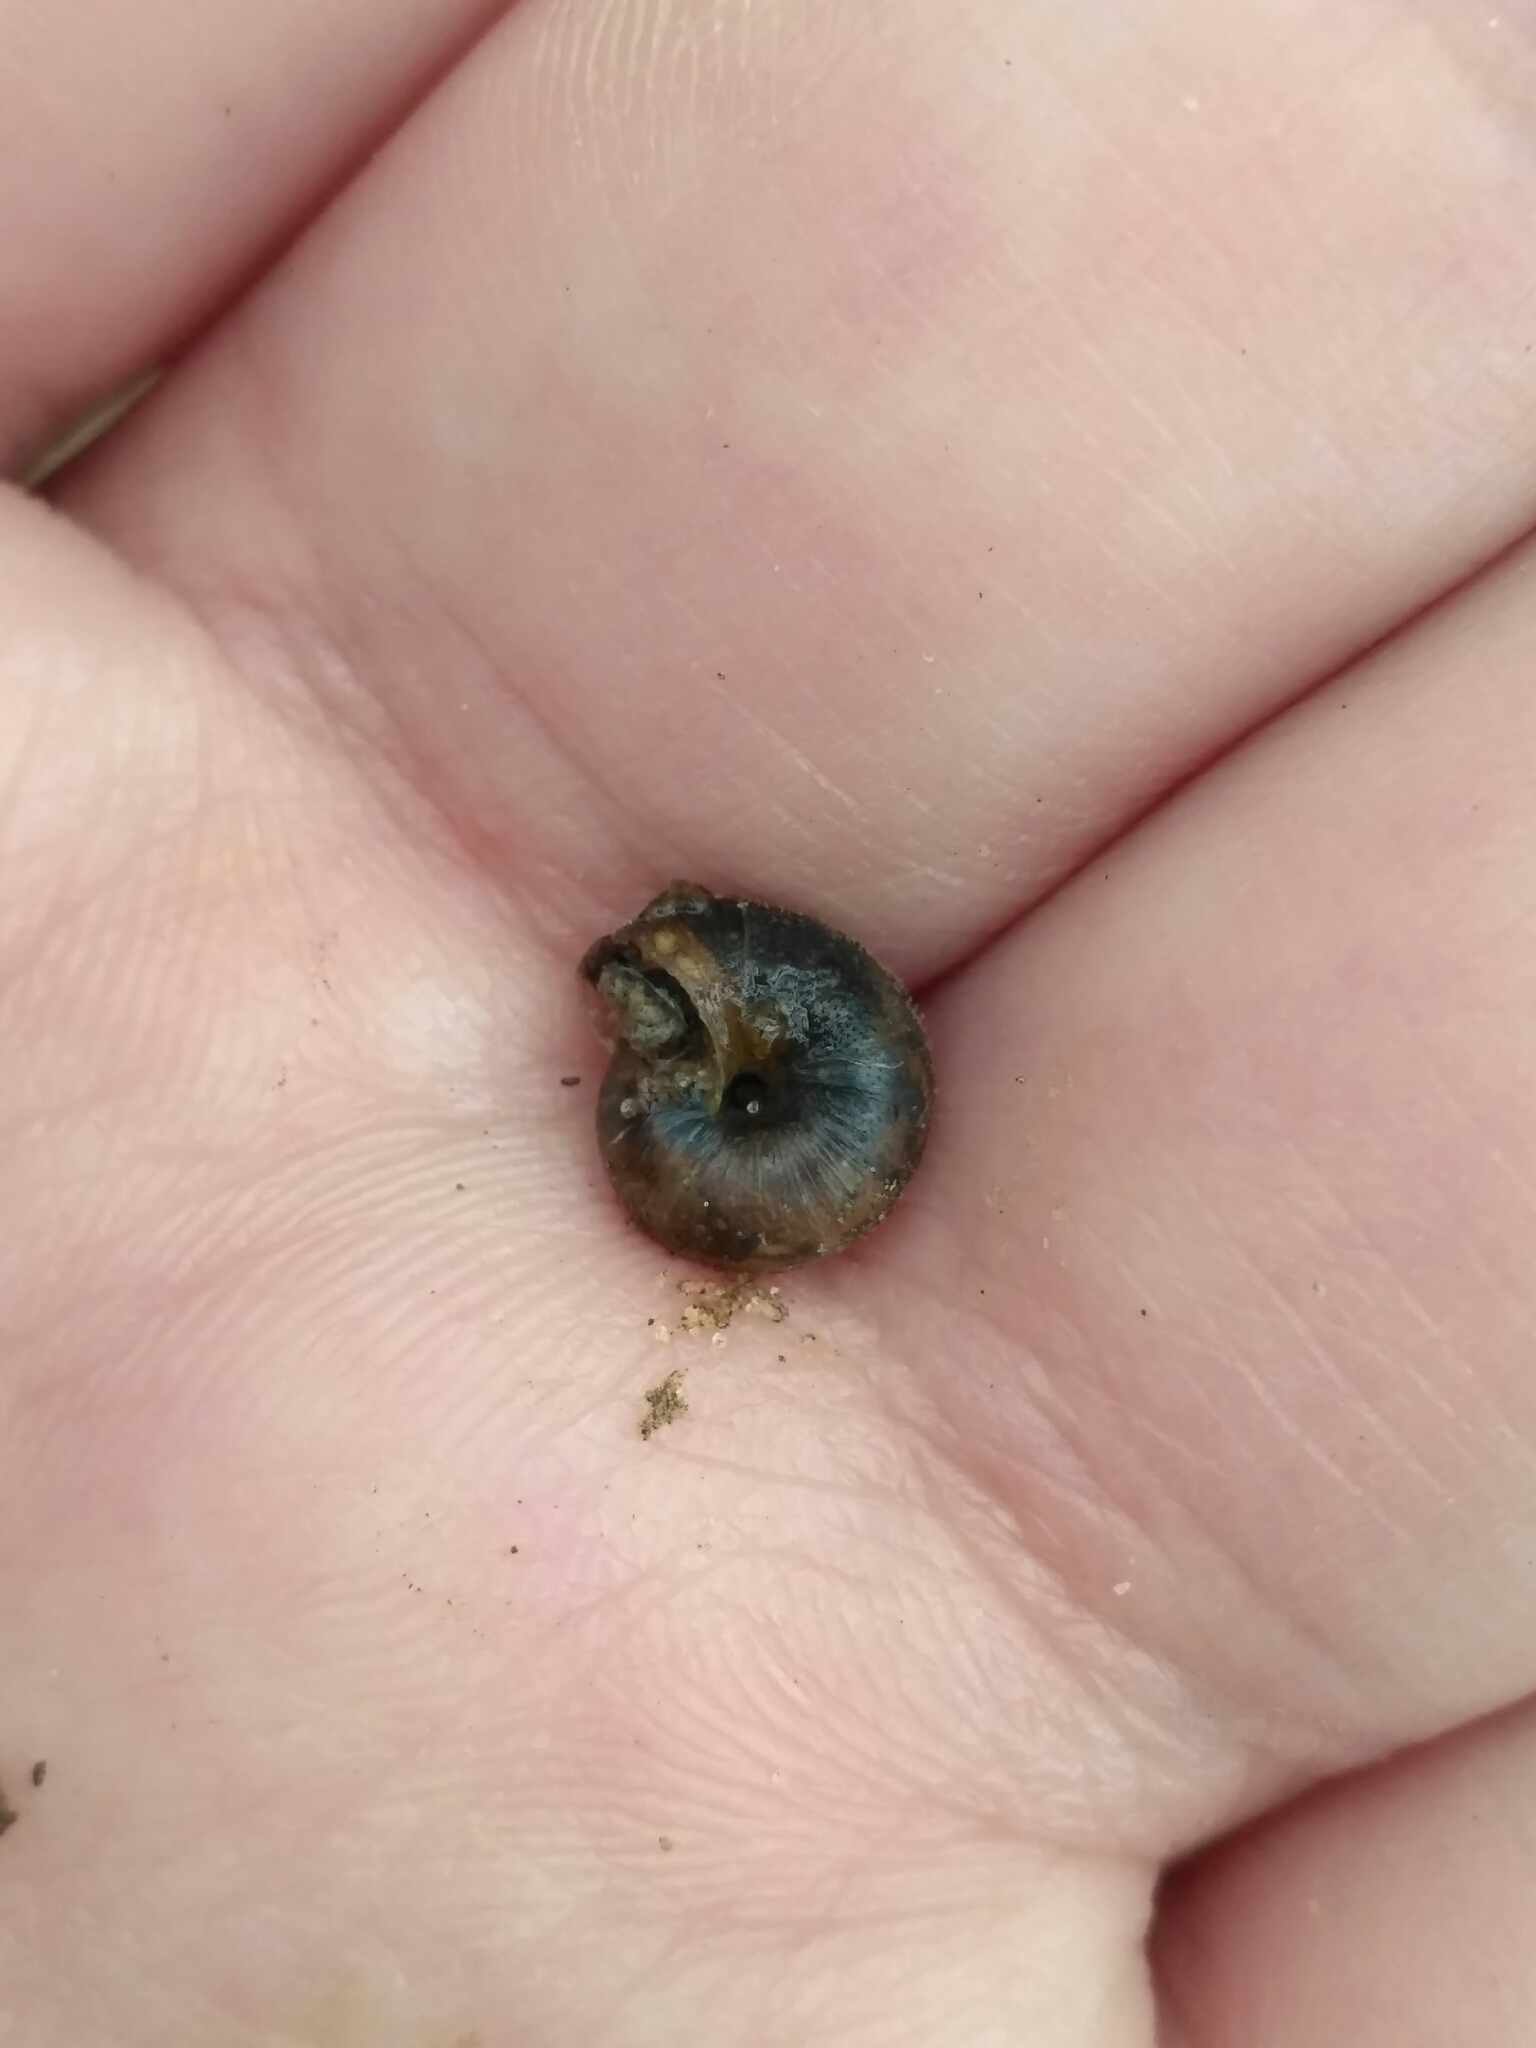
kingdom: Animalia
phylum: Mollusca
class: Gastropoda
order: Stylommatophora
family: Hygromiidae
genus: Trochulus
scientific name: Trochulus hispidus
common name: Hairy snail
